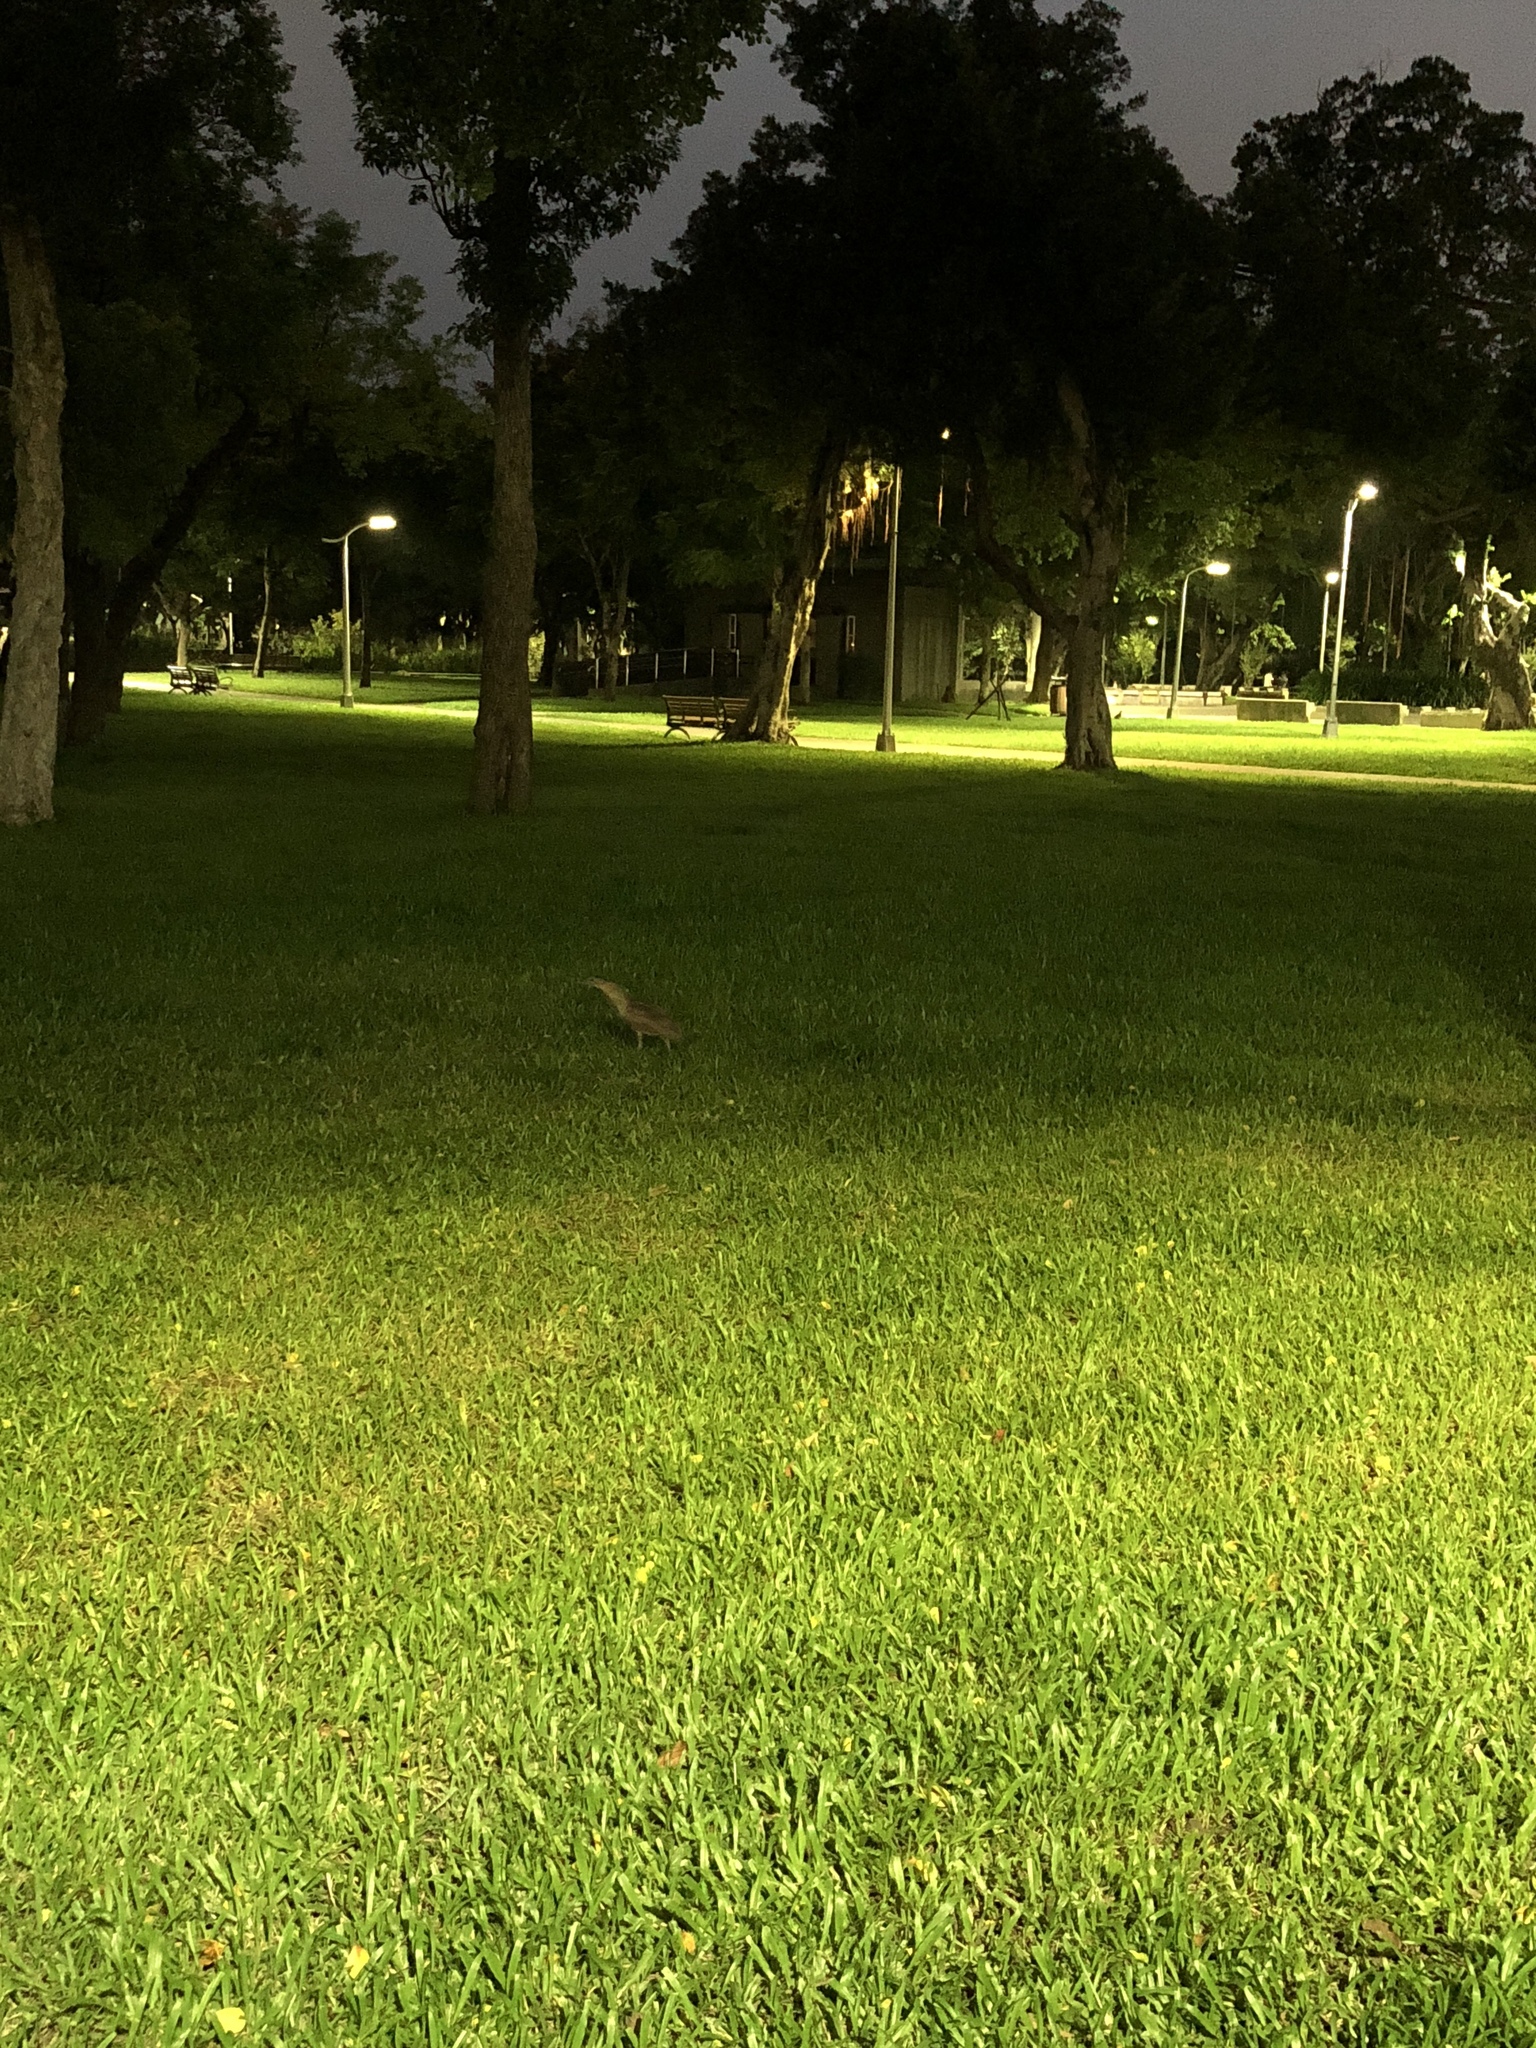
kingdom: Animalia
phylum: Chordata
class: Aves
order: Pelecaniformes
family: Ardeidae
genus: Gorsachius
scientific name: Gorsachius melanolophus
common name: Malayan night heron
